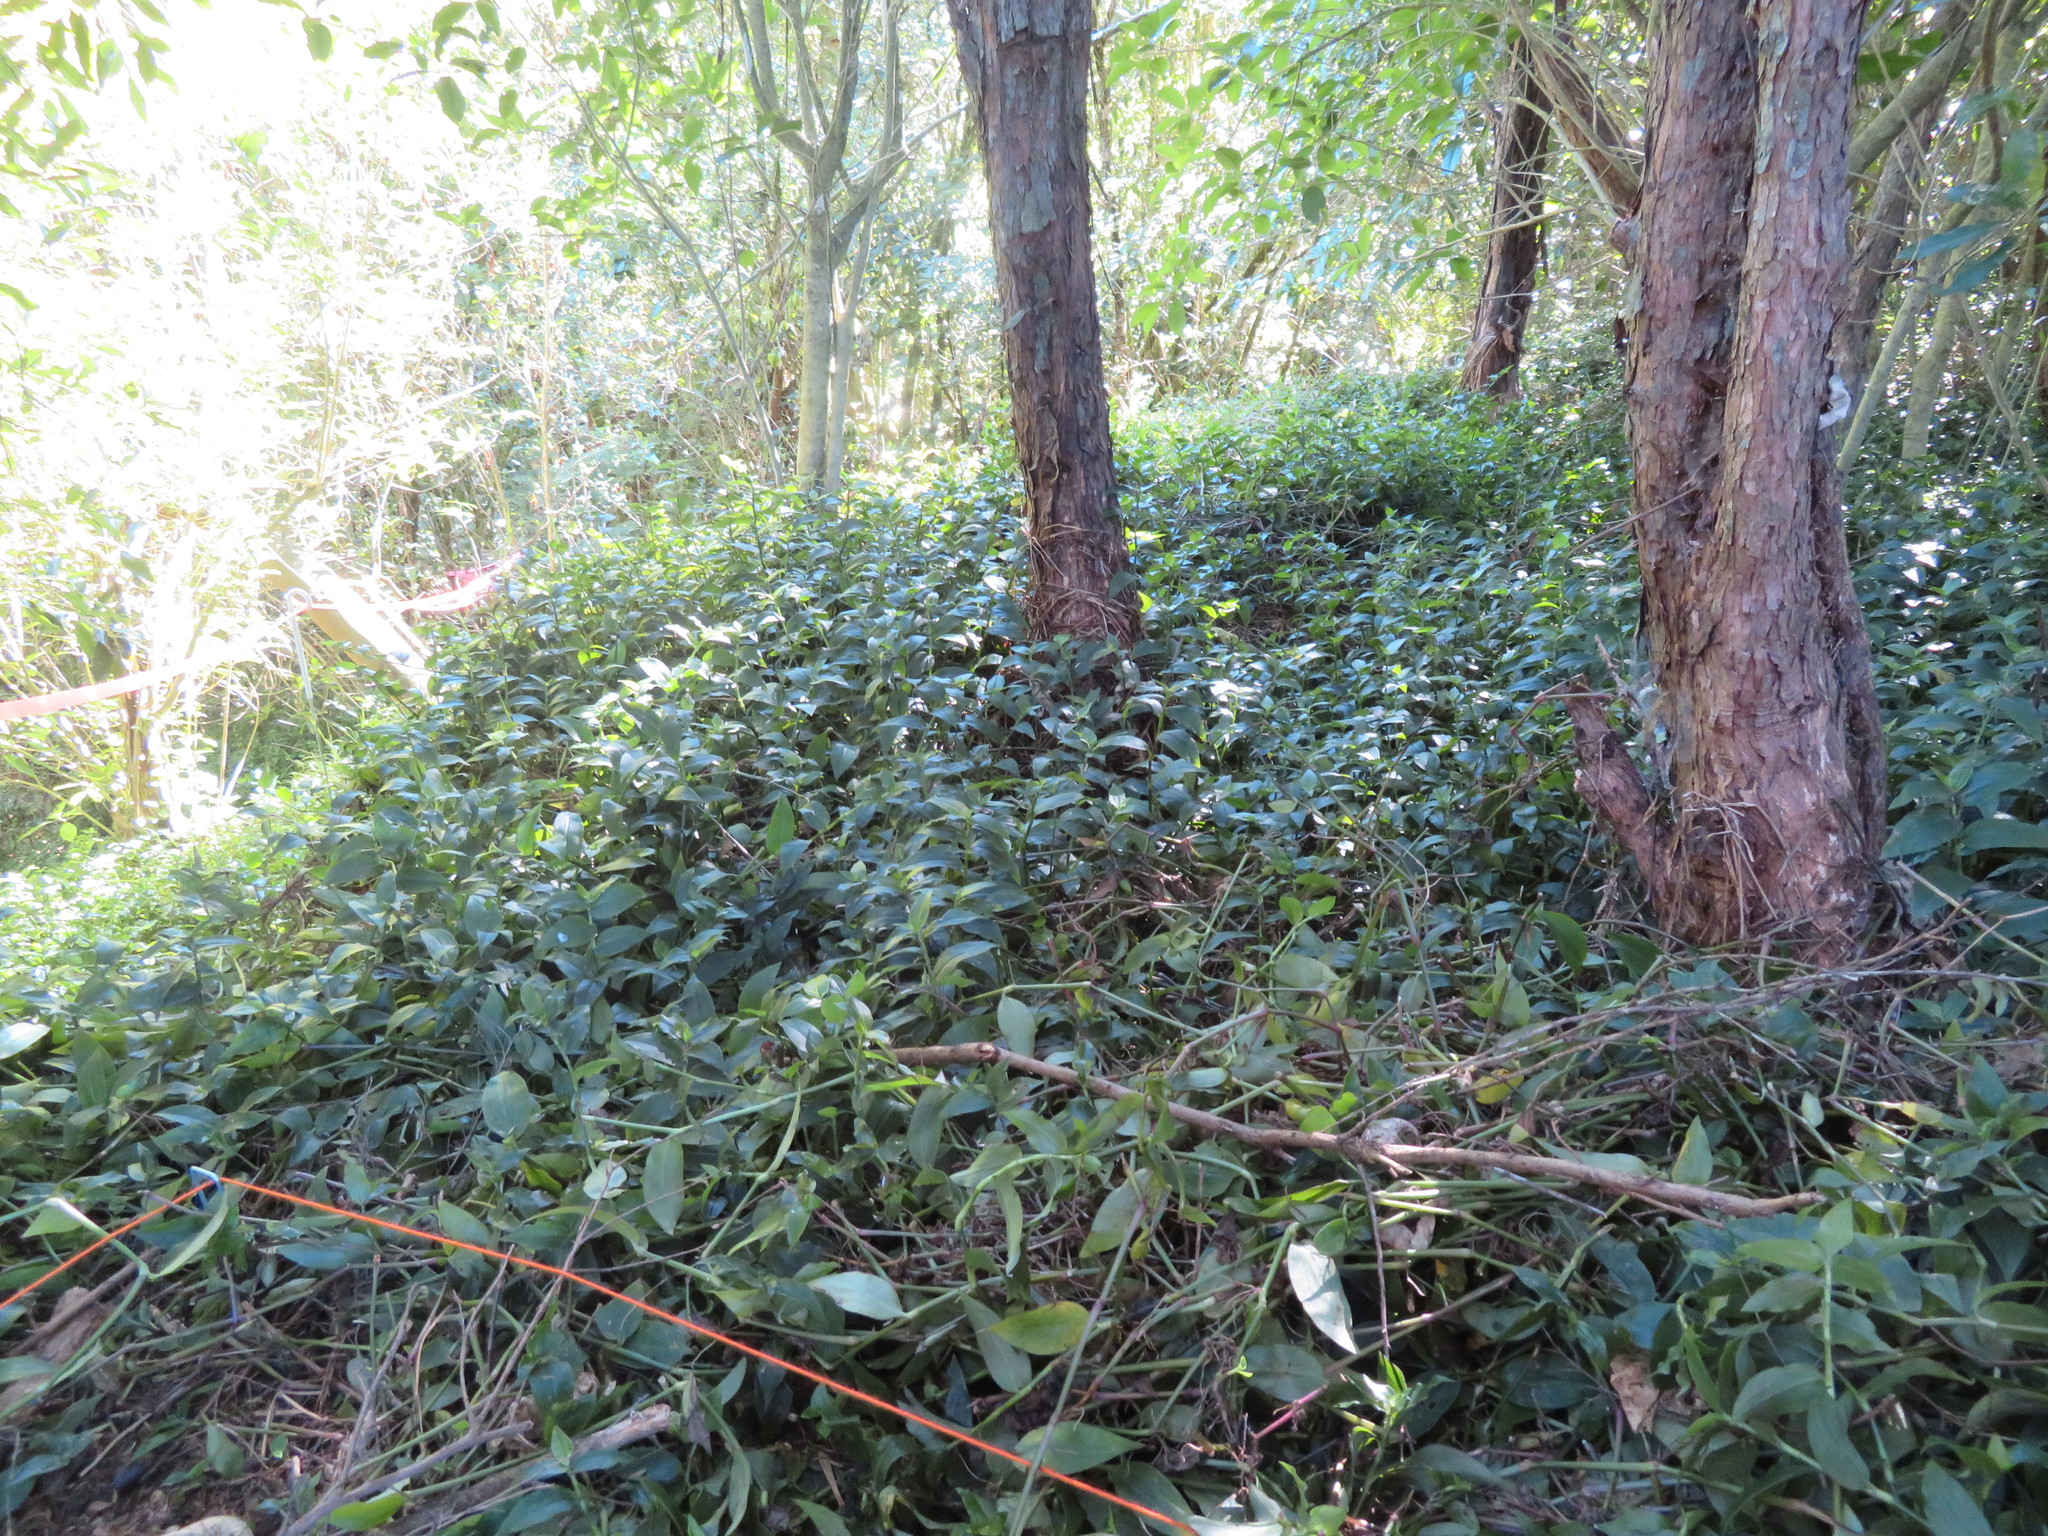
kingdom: Plantae
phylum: Tracheophyta
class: Liliopsida
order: Commelinales
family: Commelinaceae
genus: Tradescantia
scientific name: Tradescantia fluminensis
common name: Wandering-jew
